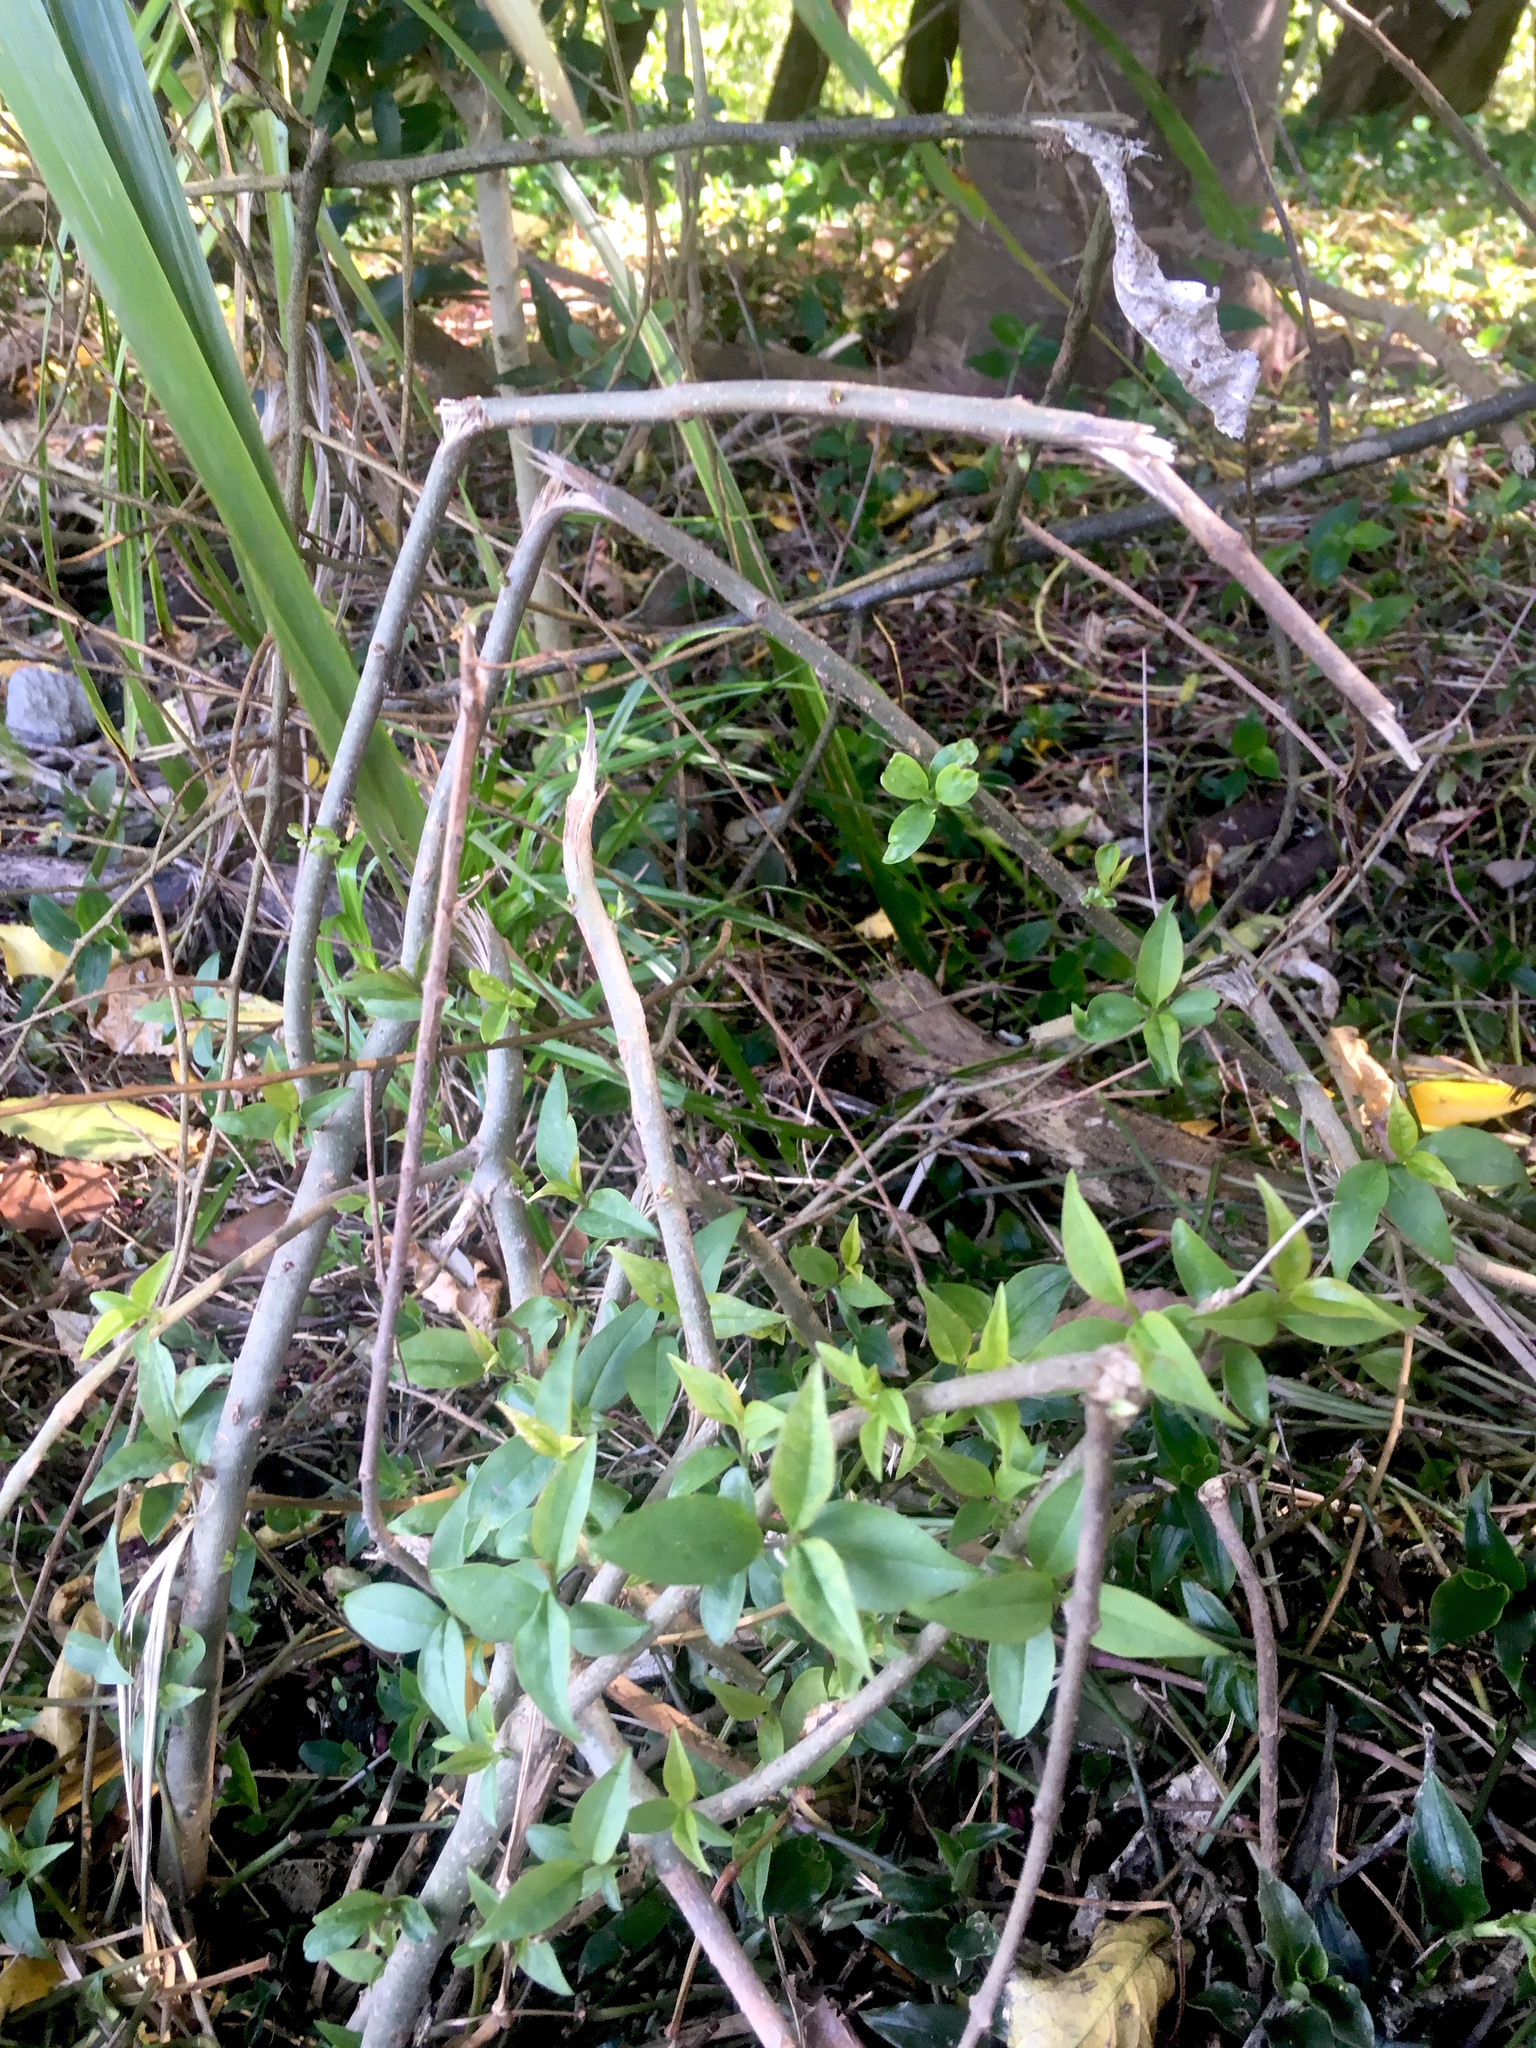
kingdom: Plantae
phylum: Tracheophyta
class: Magnoliopsida
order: Lamiales
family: Oleaceae
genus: Ligustrum
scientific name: Ligustrum lucidum
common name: Glossy privet
